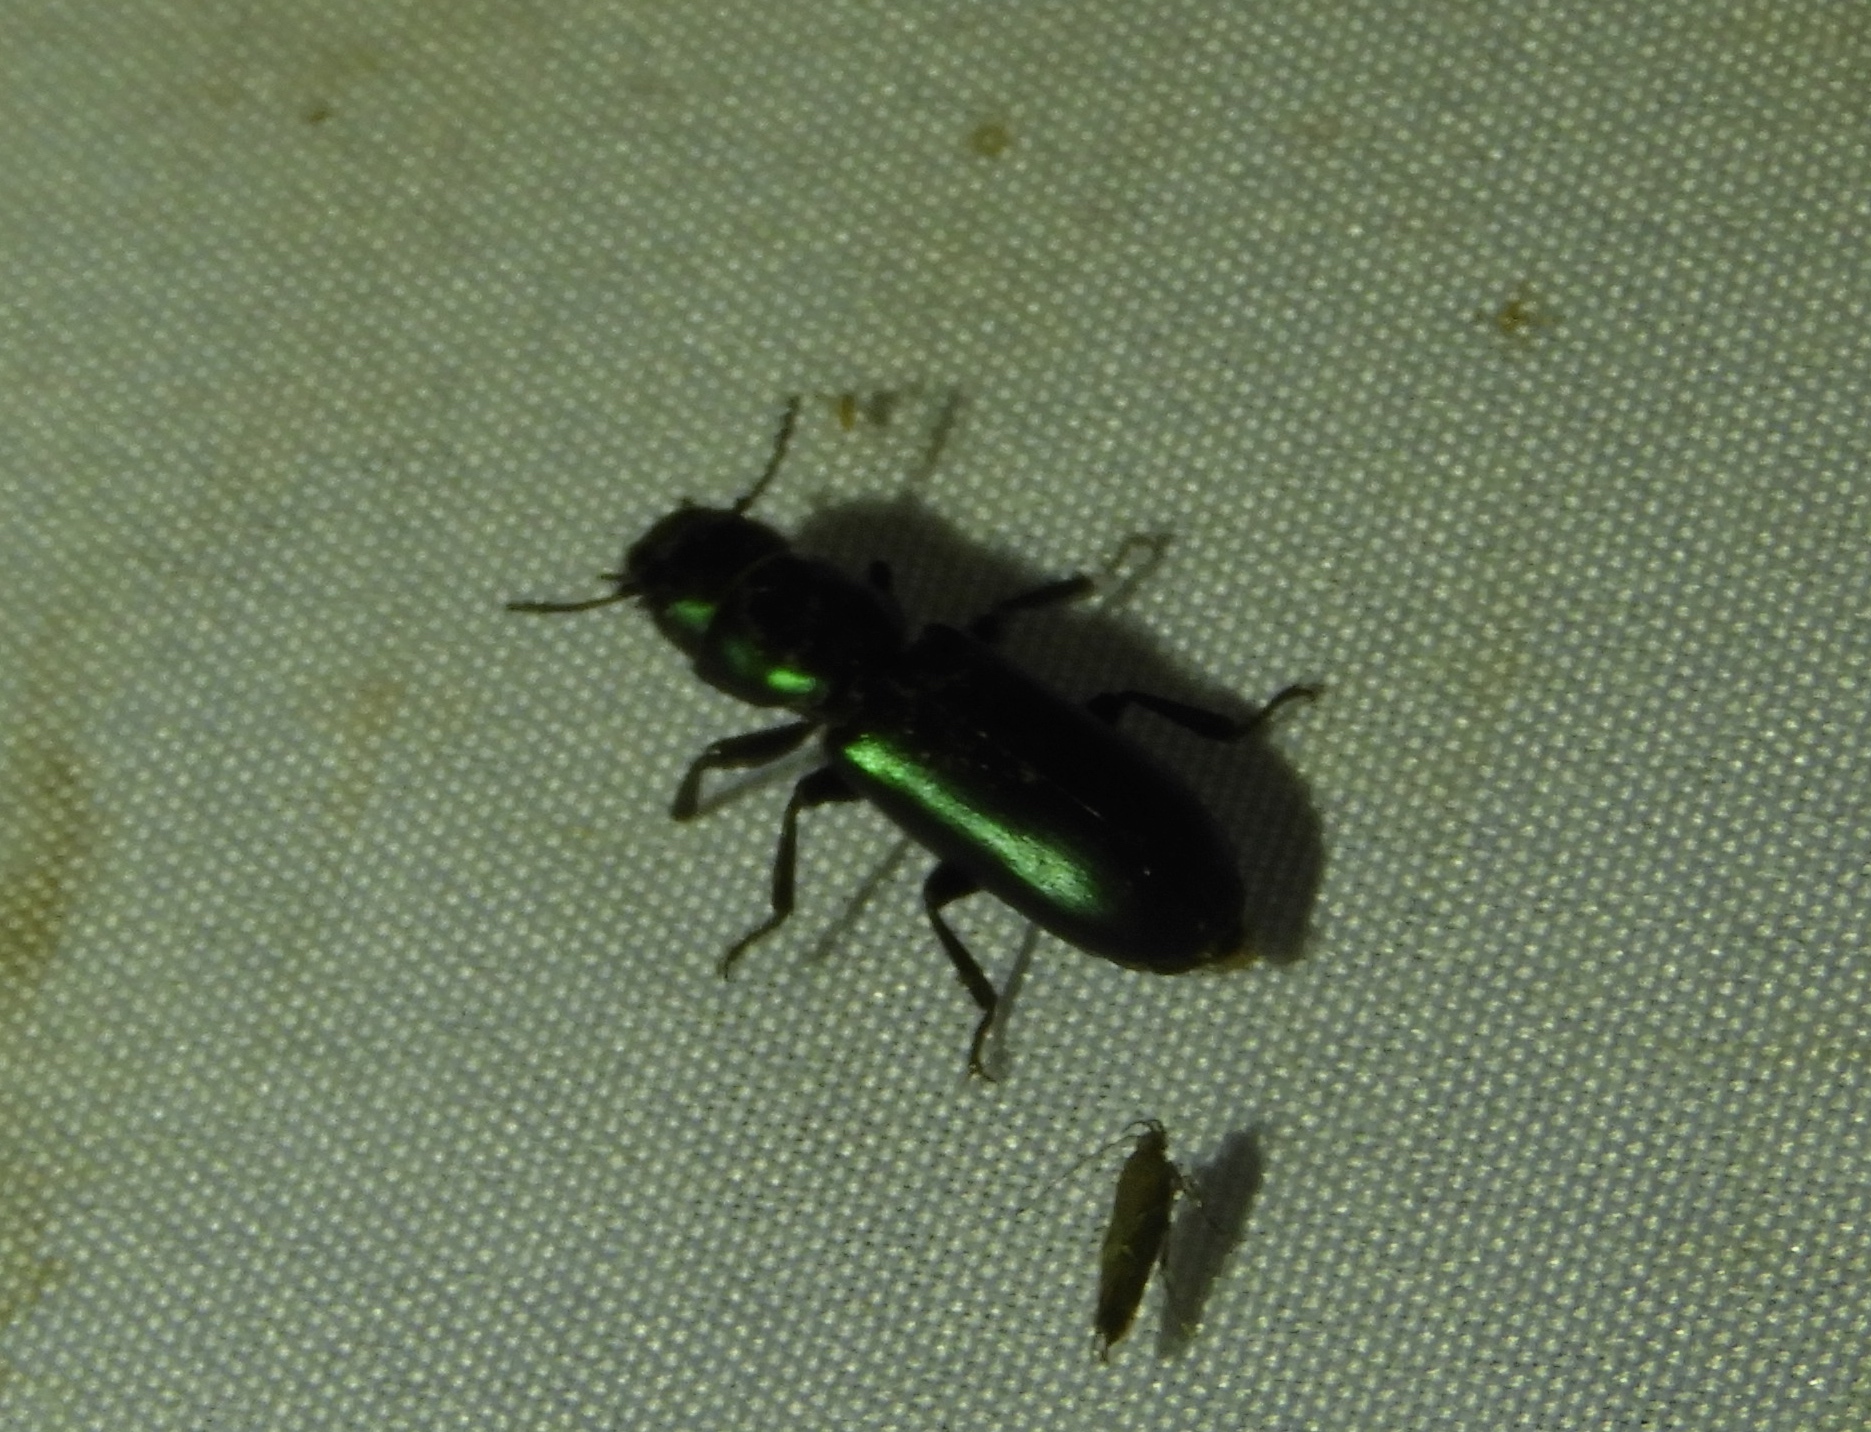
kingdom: Animalia
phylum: Arthropoda
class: Insecta
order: Coleoptera
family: Trogossitidae
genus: Temnoscheila
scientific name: Temnoscheila
